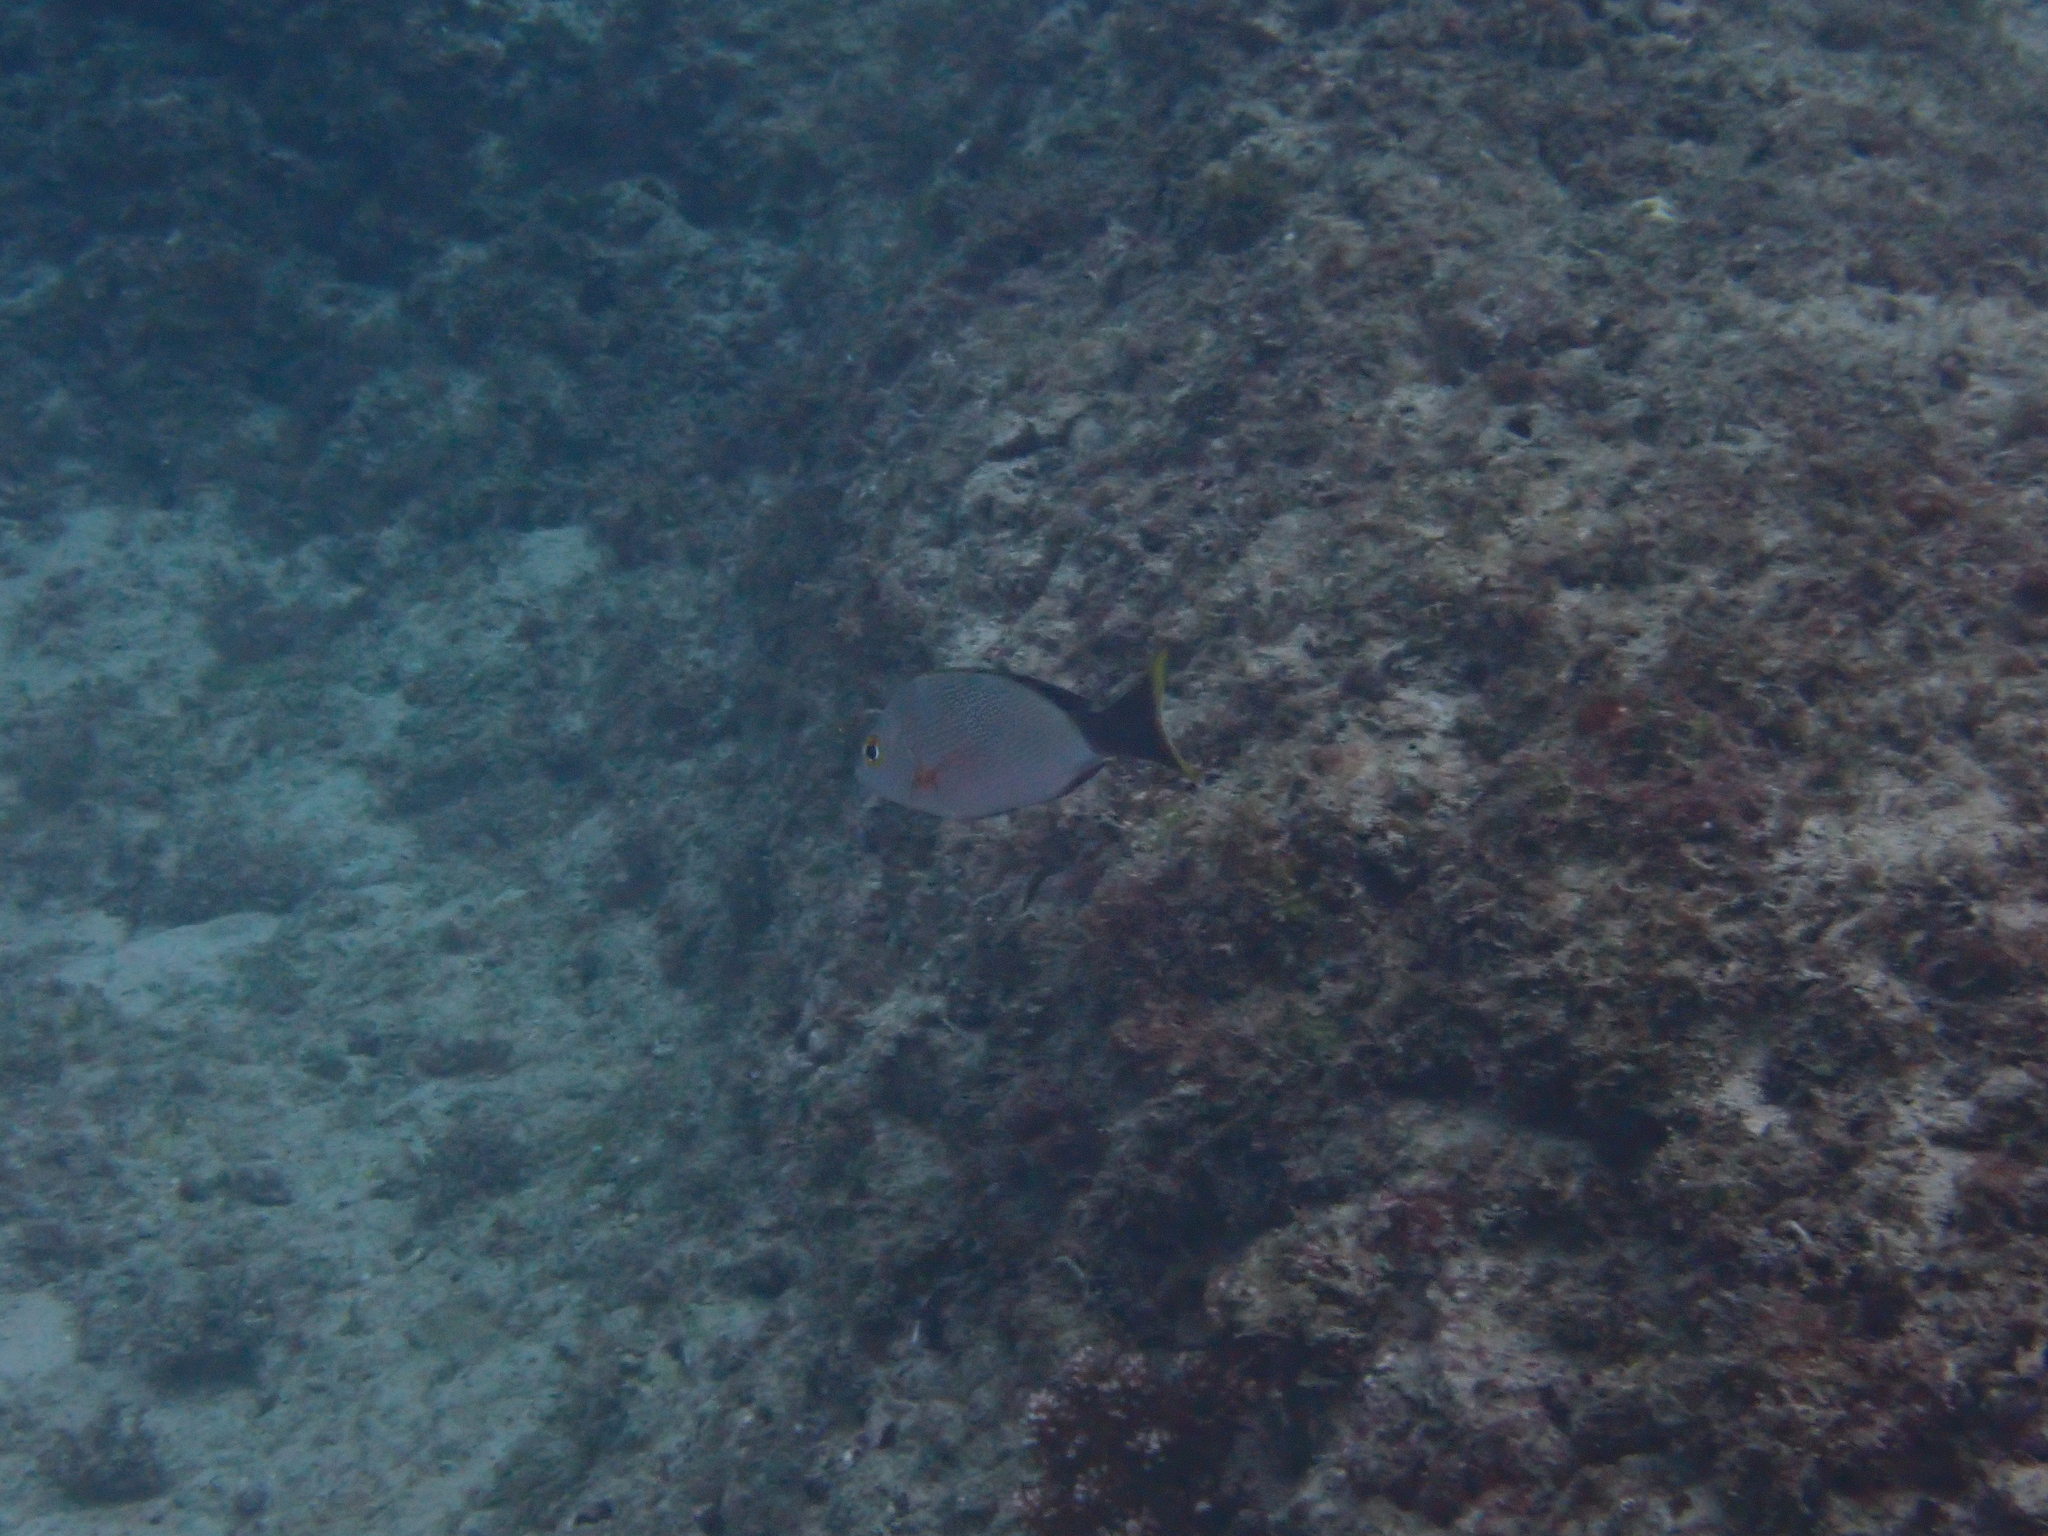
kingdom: Animalia
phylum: Chordata
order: Perciformes
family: Lutjanidae
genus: Lutjanus
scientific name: Lutjanus gibbus
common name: Humpback snapper
